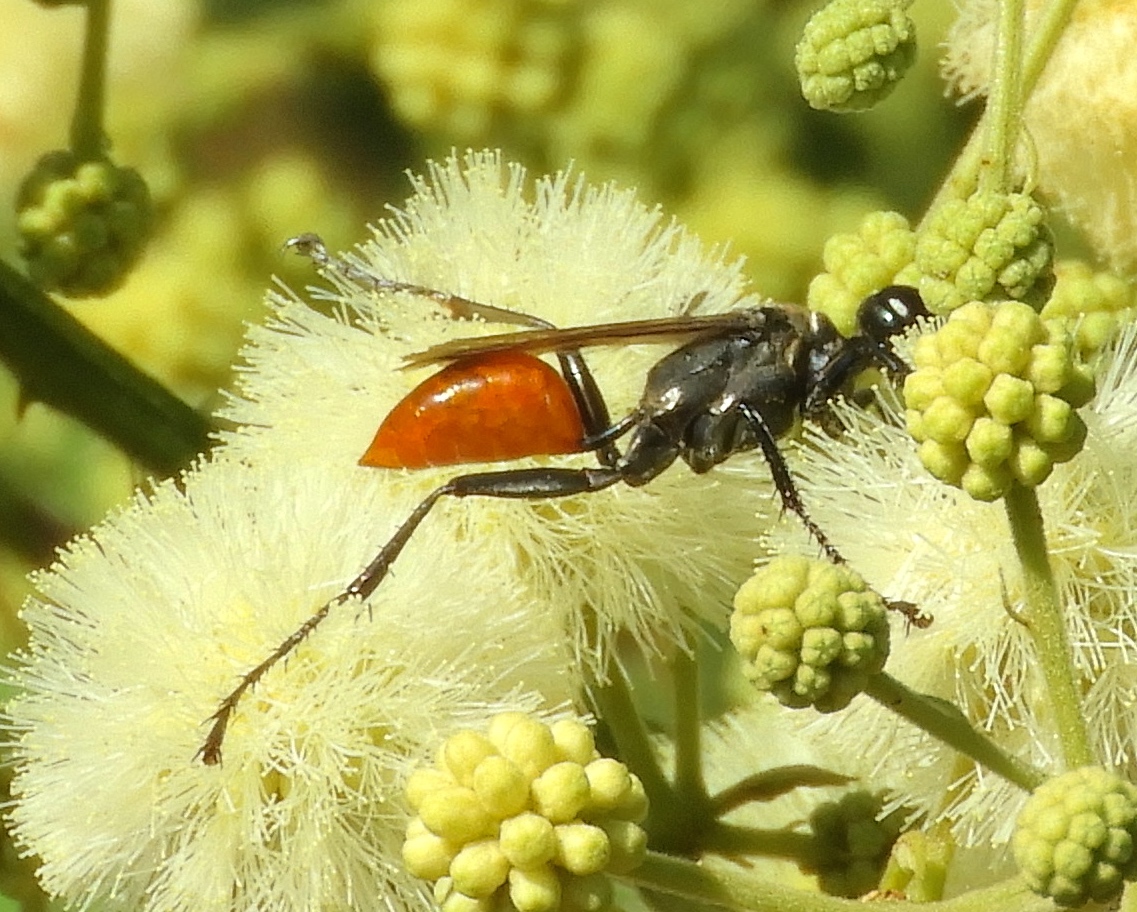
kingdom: Animalia
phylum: Arthropoda
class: Insecta
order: Hymenoptera
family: Sphecidae
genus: Prionyx
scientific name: Prionyx
